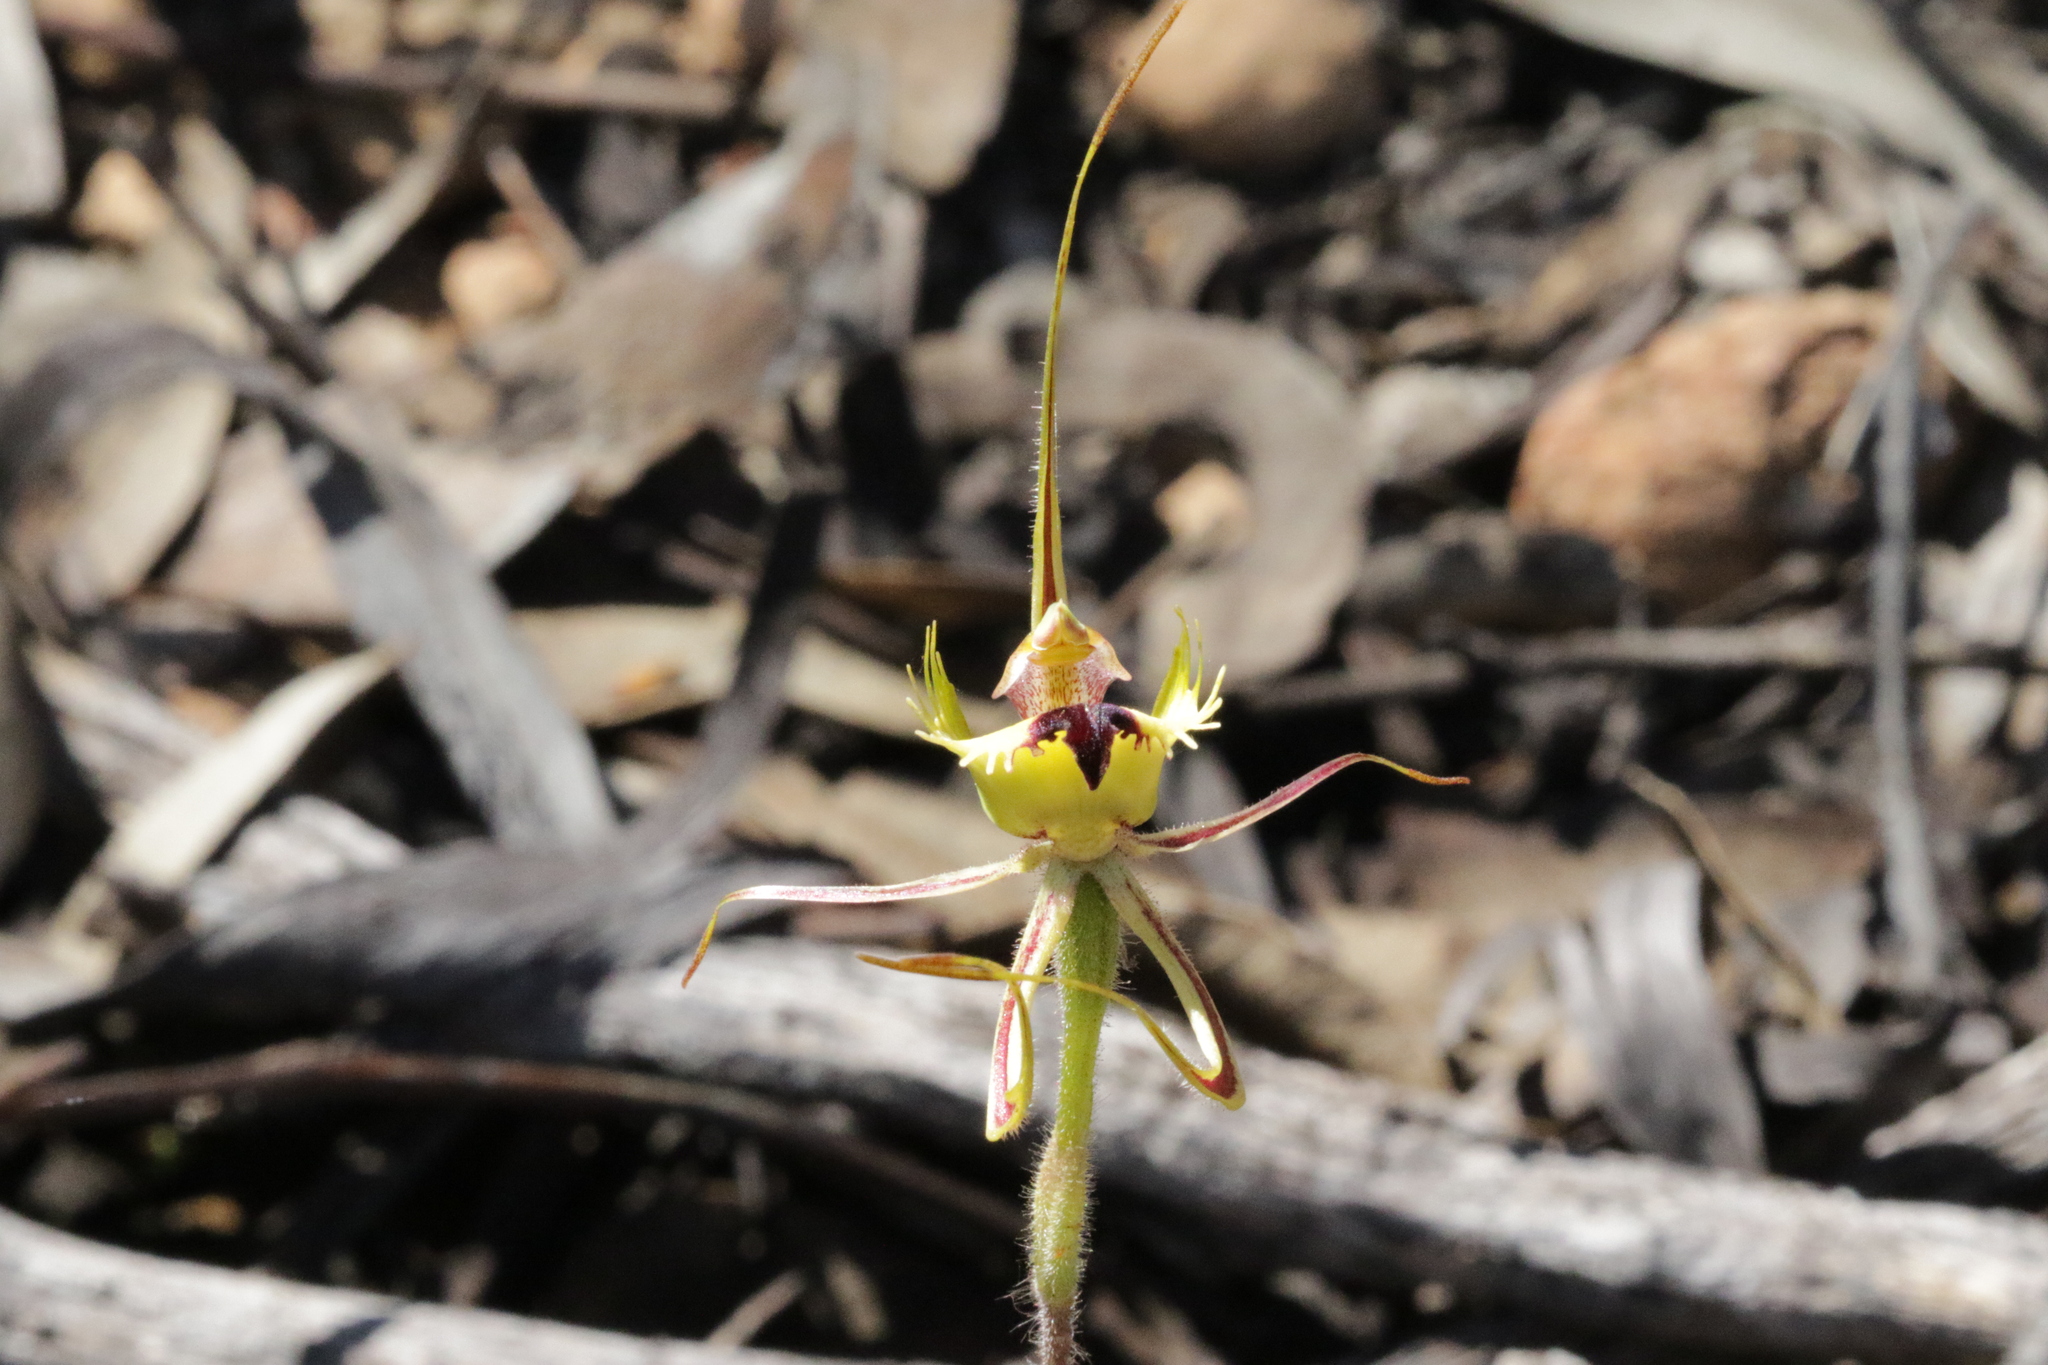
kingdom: Plantae
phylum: Tracheophyta
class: Liliopsida
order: Asparagales
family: Orchidaceae
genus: Caladenia
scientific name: Caladenia falcata
